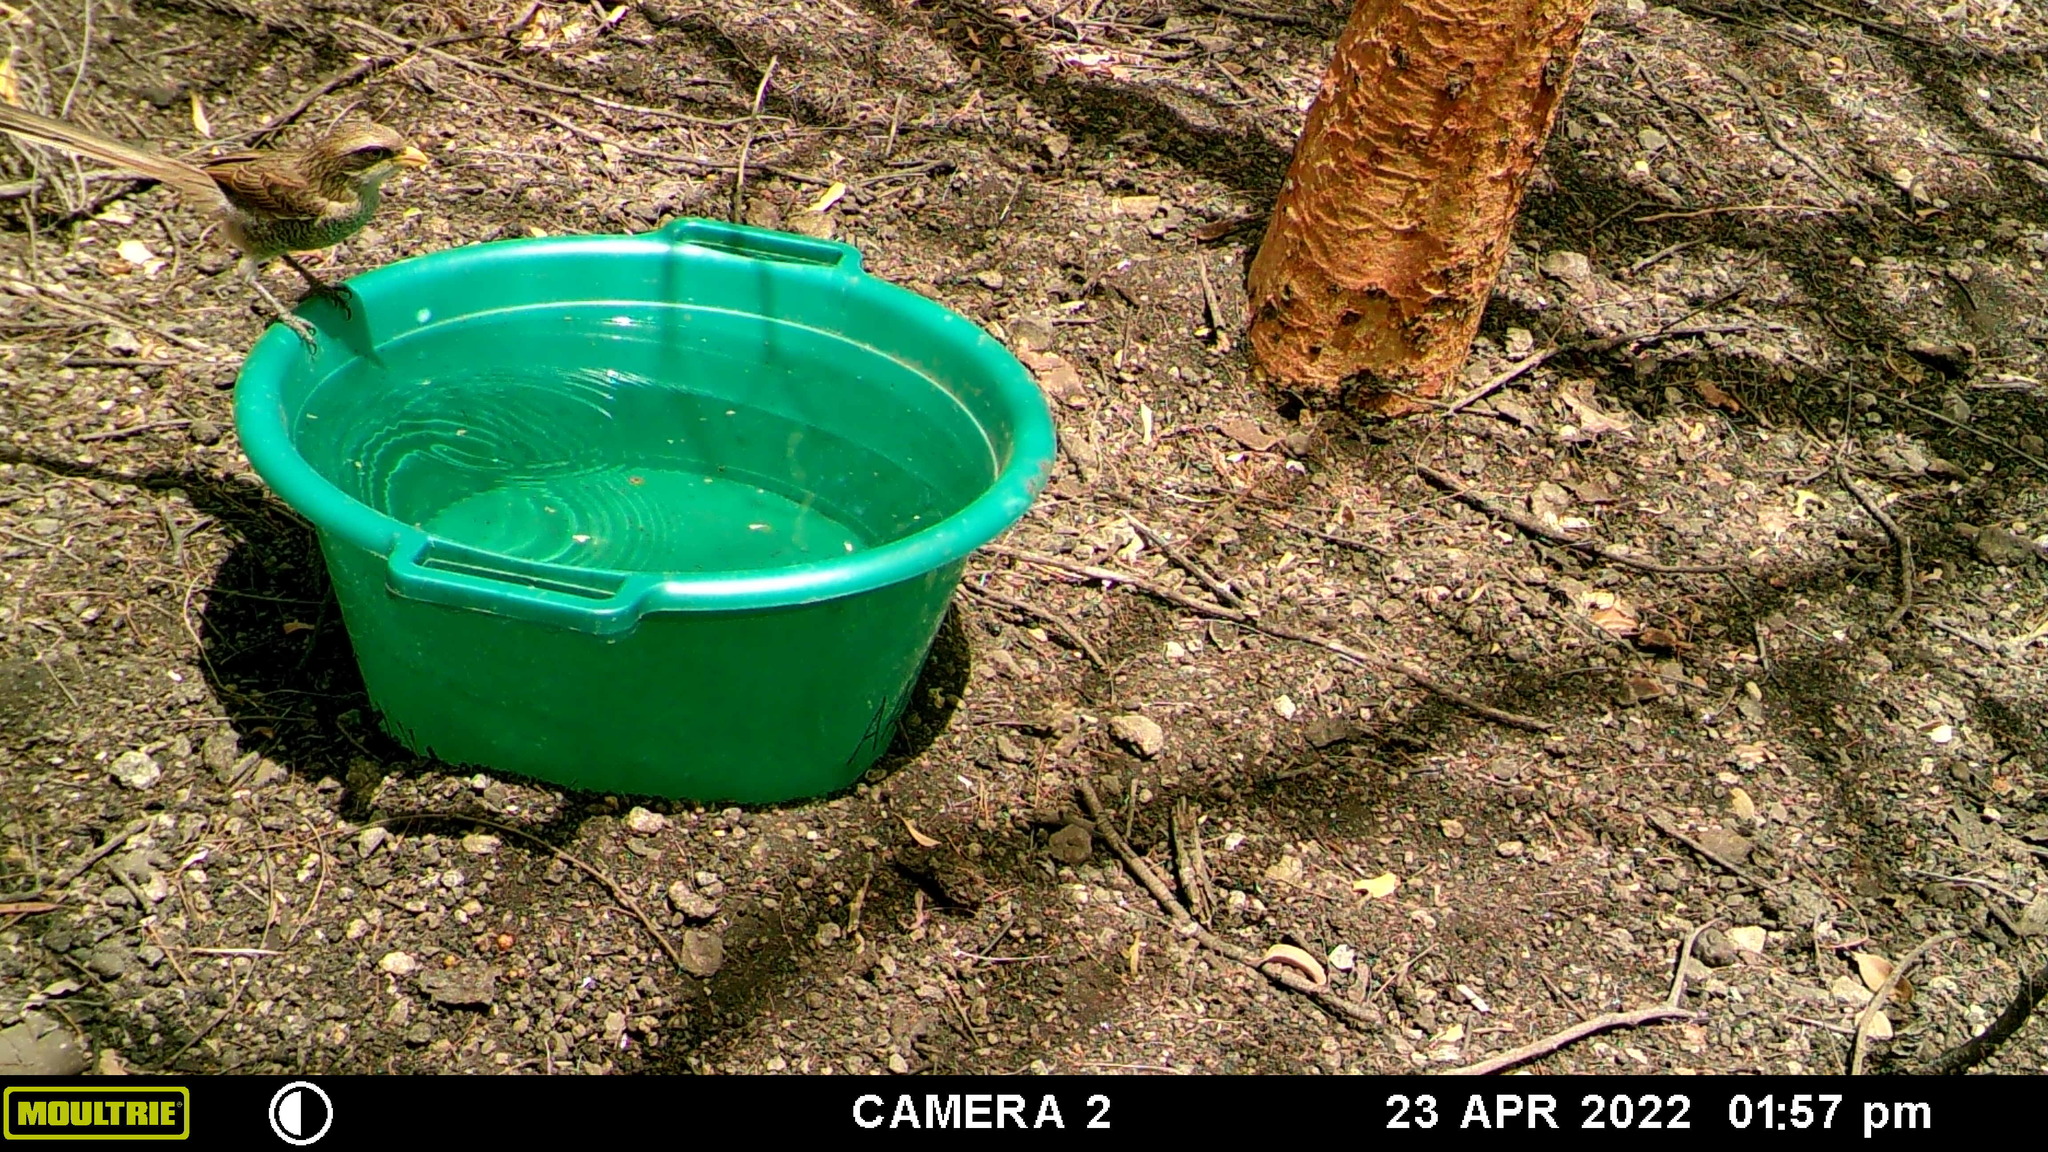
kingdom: Animalia
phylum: Chordata
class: Aves
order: Passeriformes
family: Laniidae
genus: Corvinella
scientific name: Corvinella corvina
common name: Yellow-billed shrike
